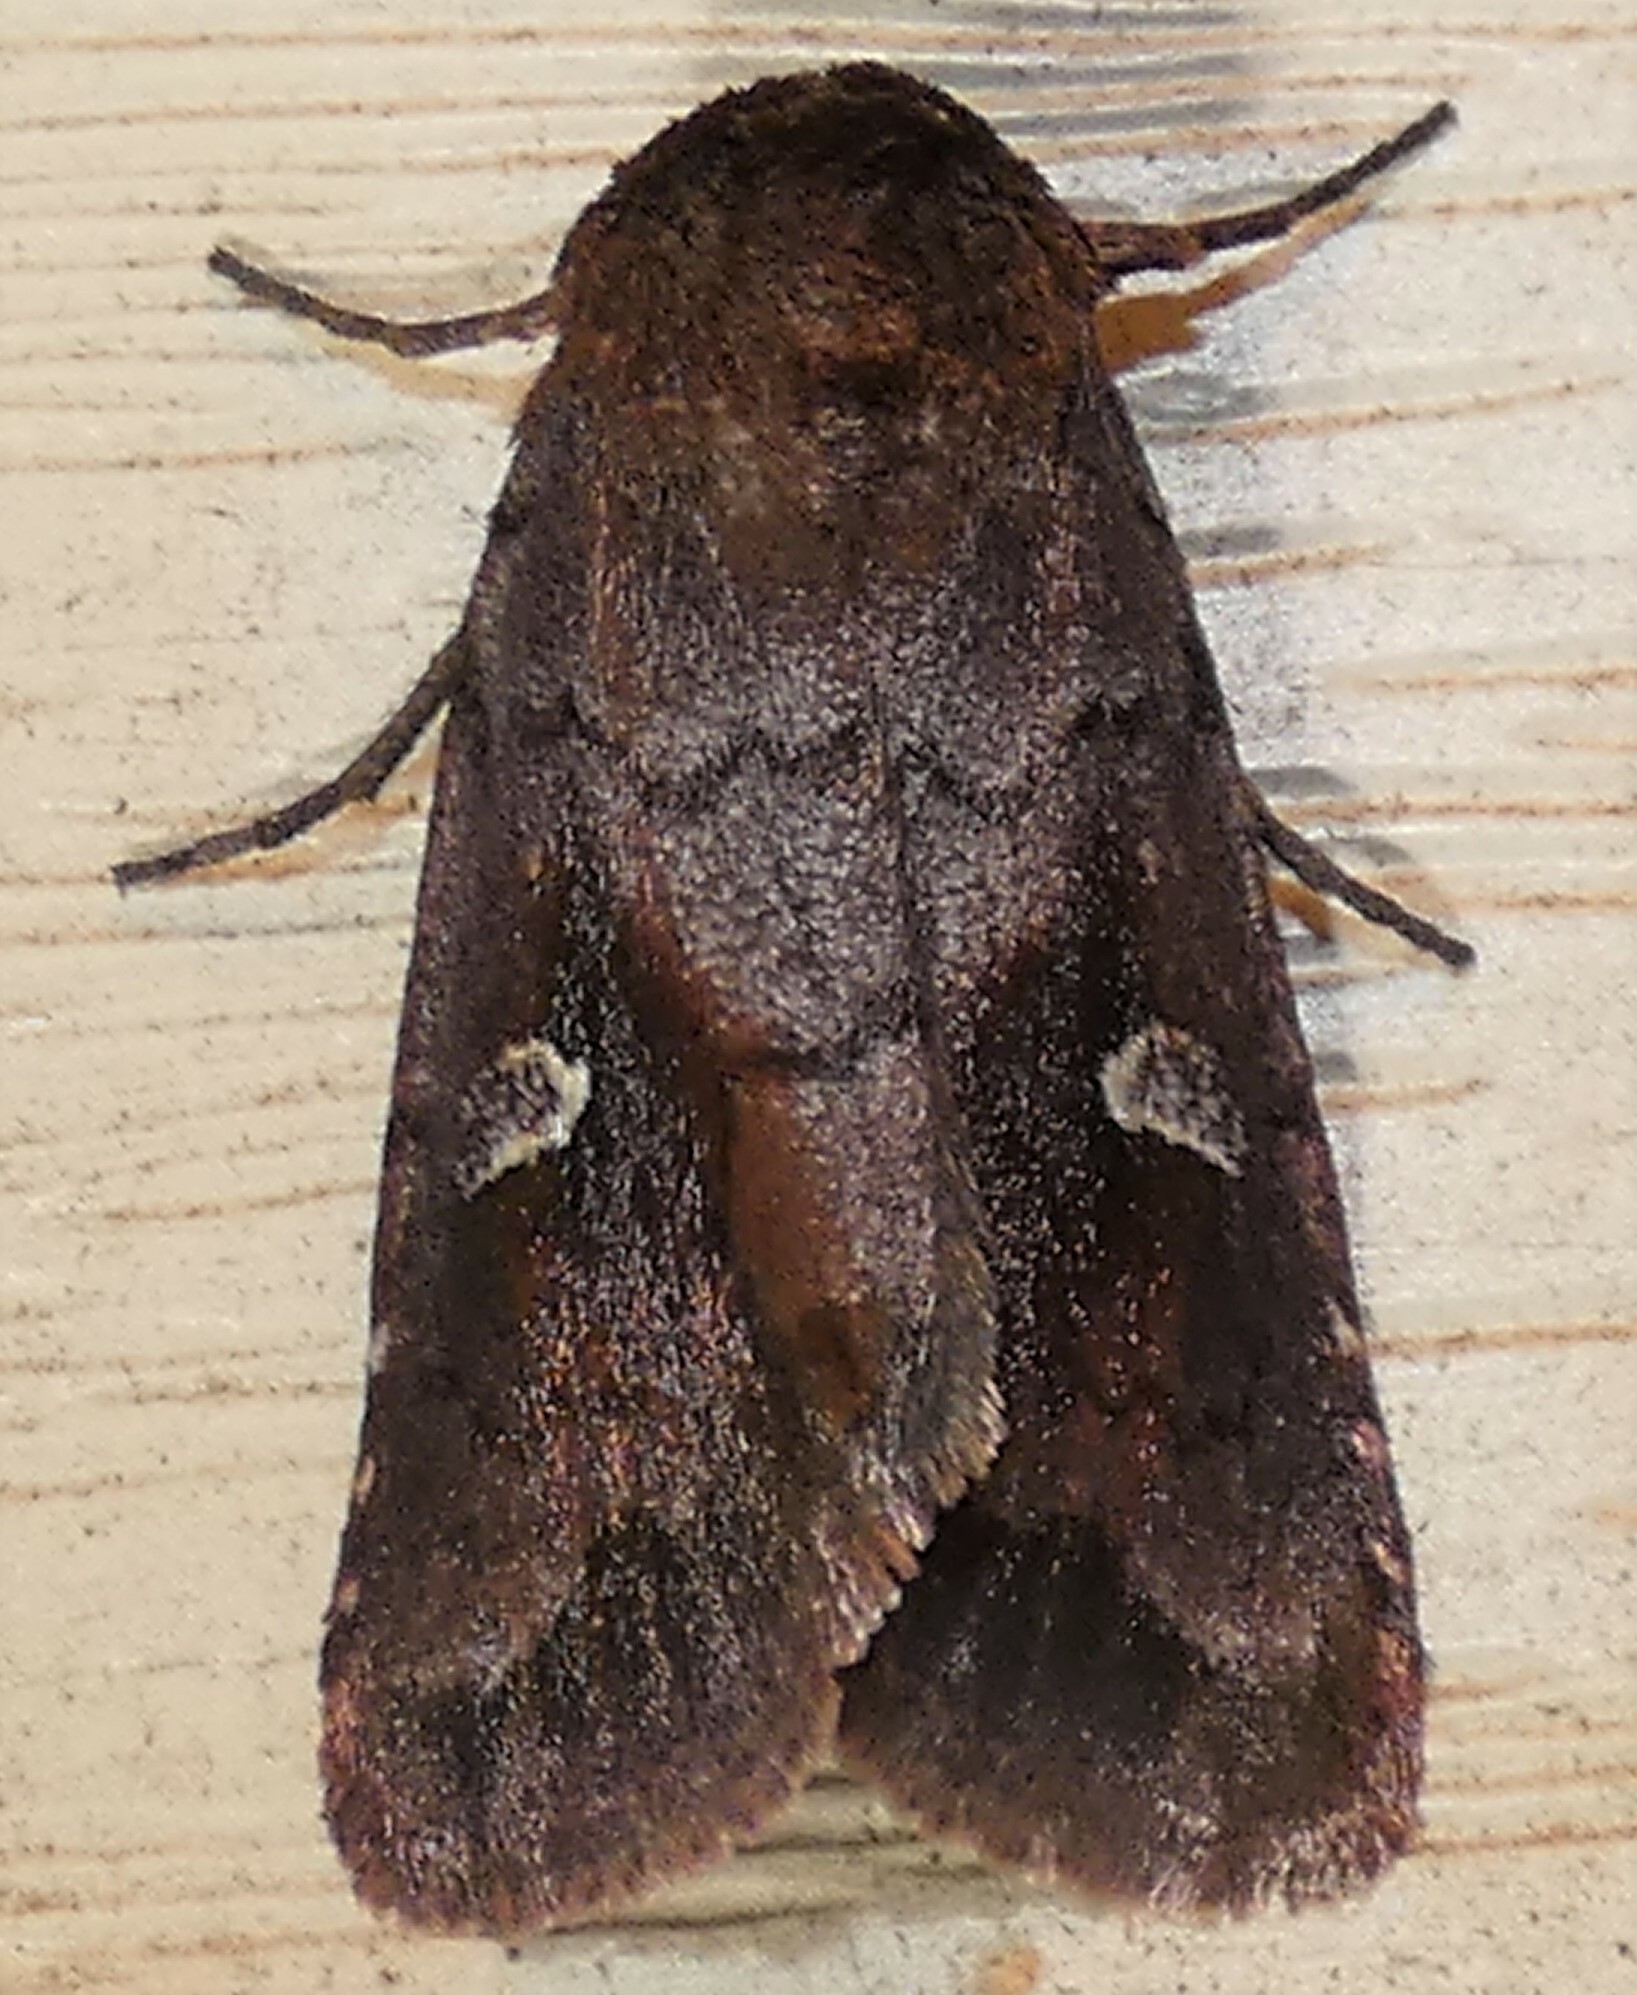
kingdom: Animalia
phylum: Arthropoda
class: Insecta
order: Lepidoptera
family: Noctuidae
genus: Iodopepla
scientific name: Iodopepla ualbum
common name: White-eyed borer moth
